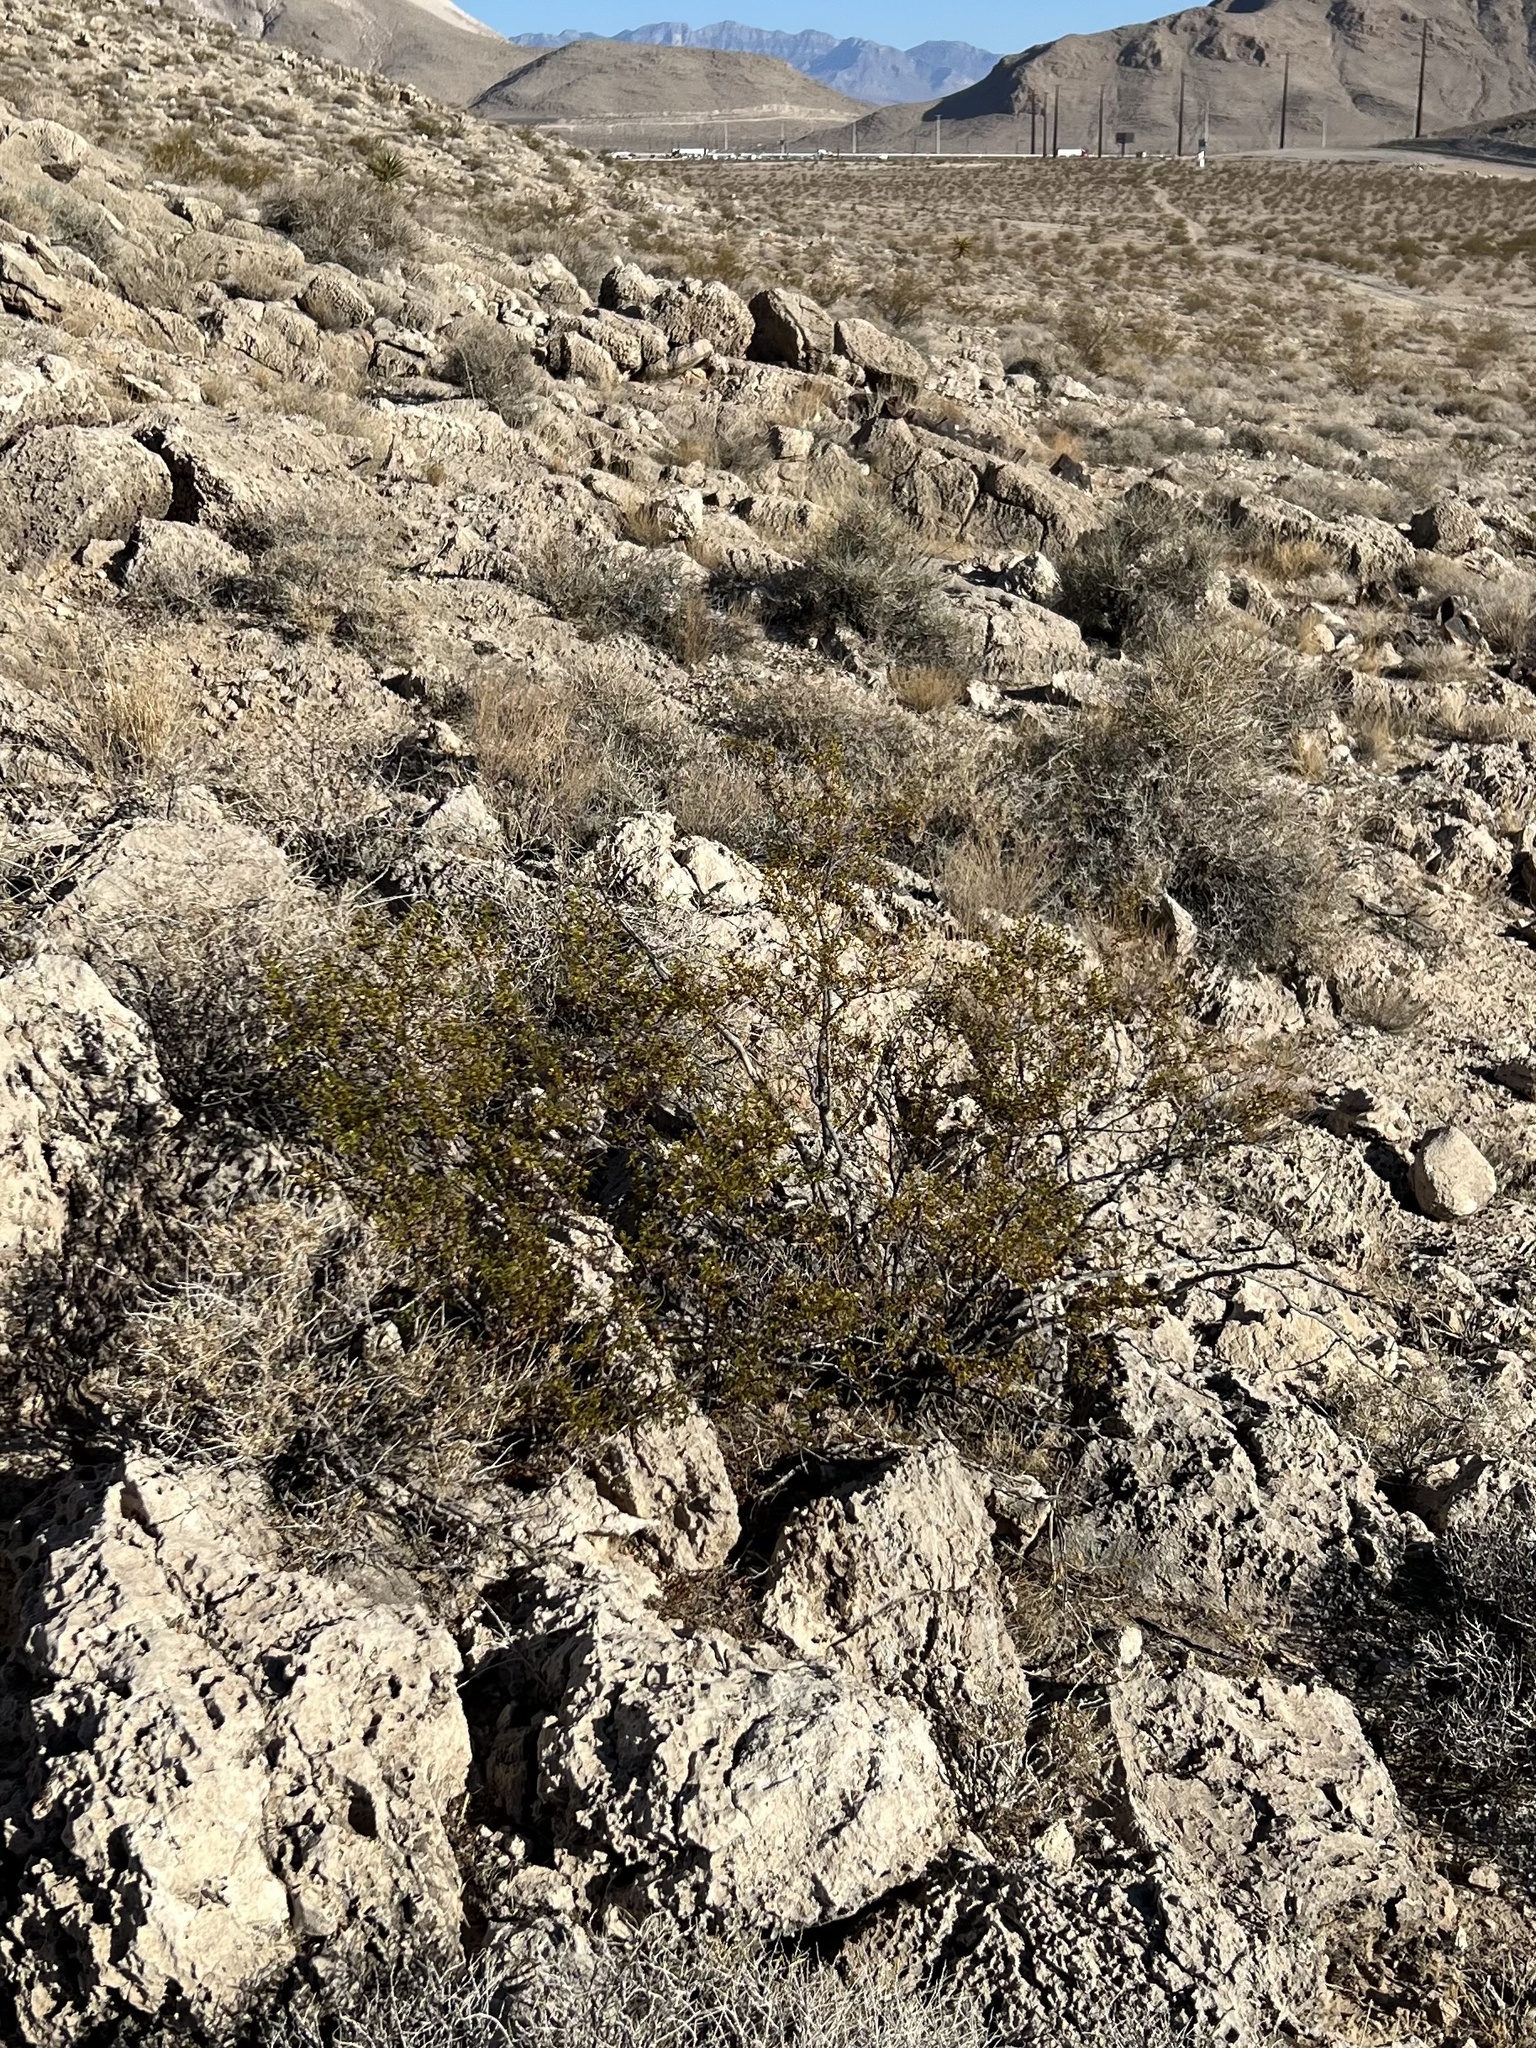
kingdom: Plantae
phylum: Tracheophyta
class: Magnoliopsida
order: Zygophyllales
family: Zygophyllaceae
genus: Larrea
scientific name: Larrea tridentata
